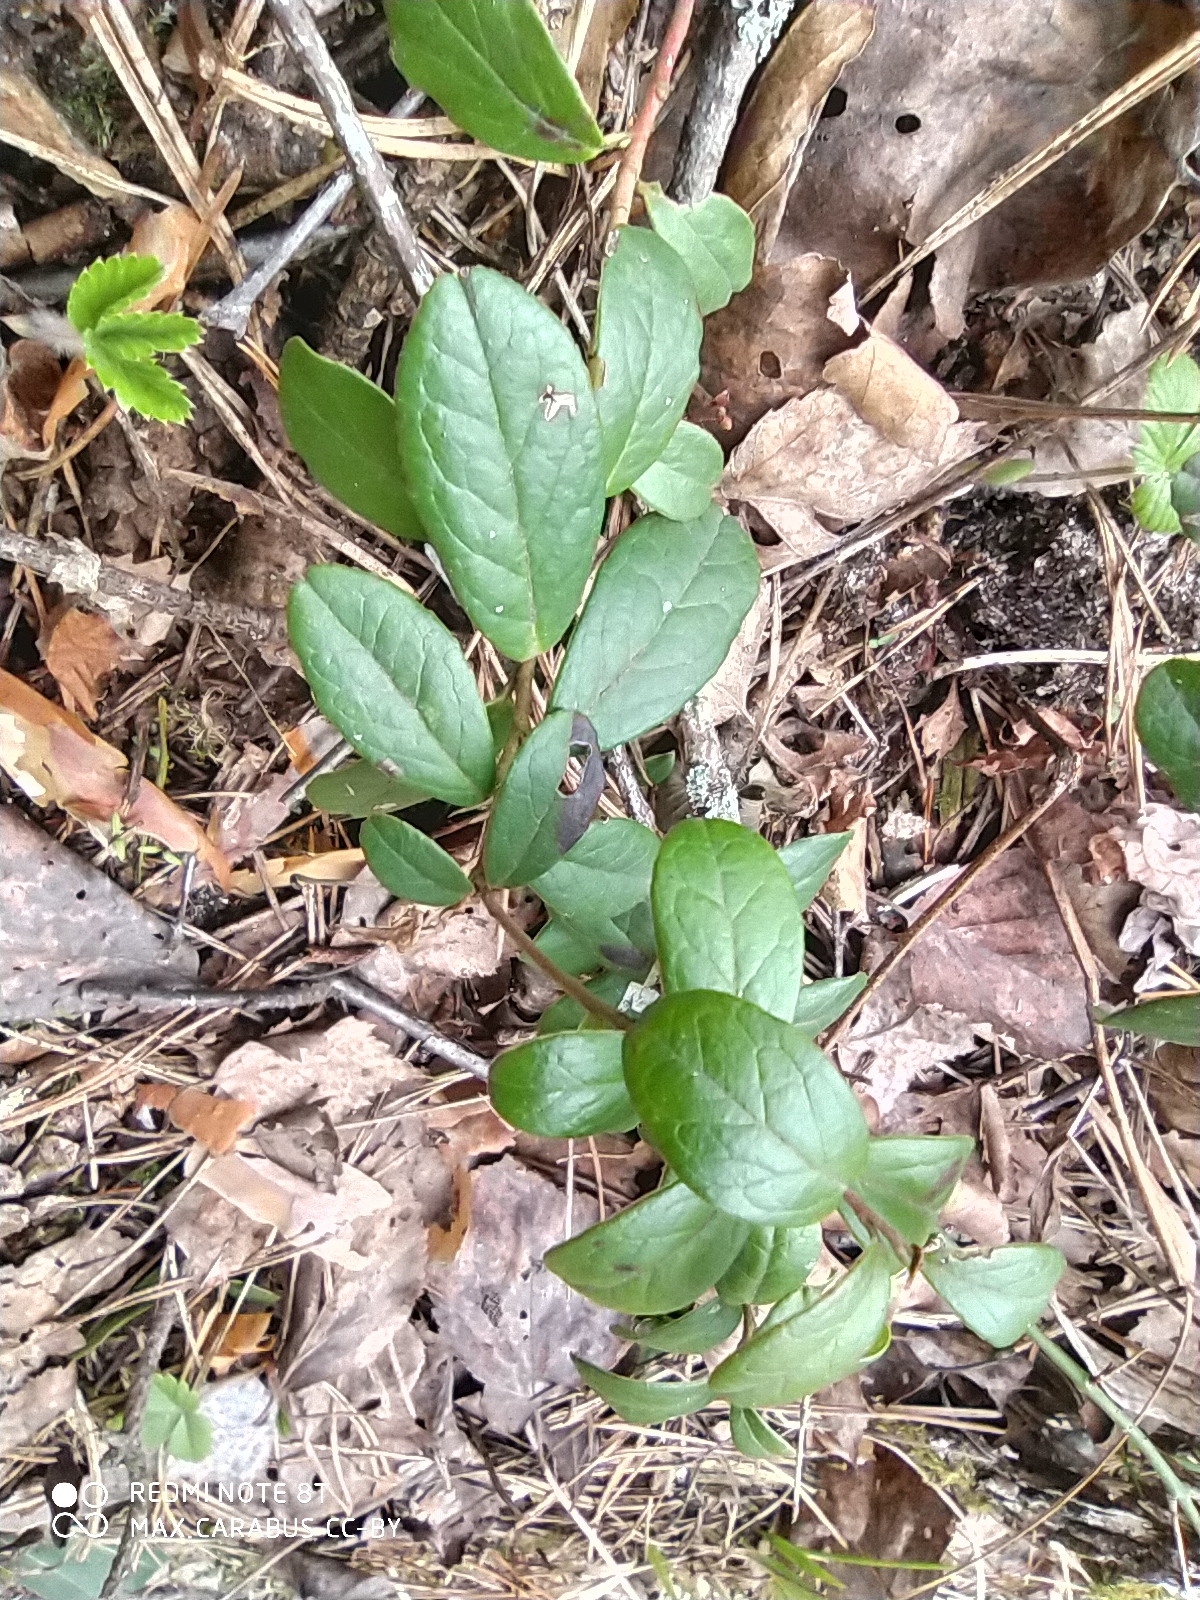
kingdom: Plantae
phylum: Tracheophyta
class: Magnoliopsida
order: Ericales
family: Ericaceae
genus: Vaccinium
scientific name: Vaccinium vitis-idaea
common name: Cowberry
